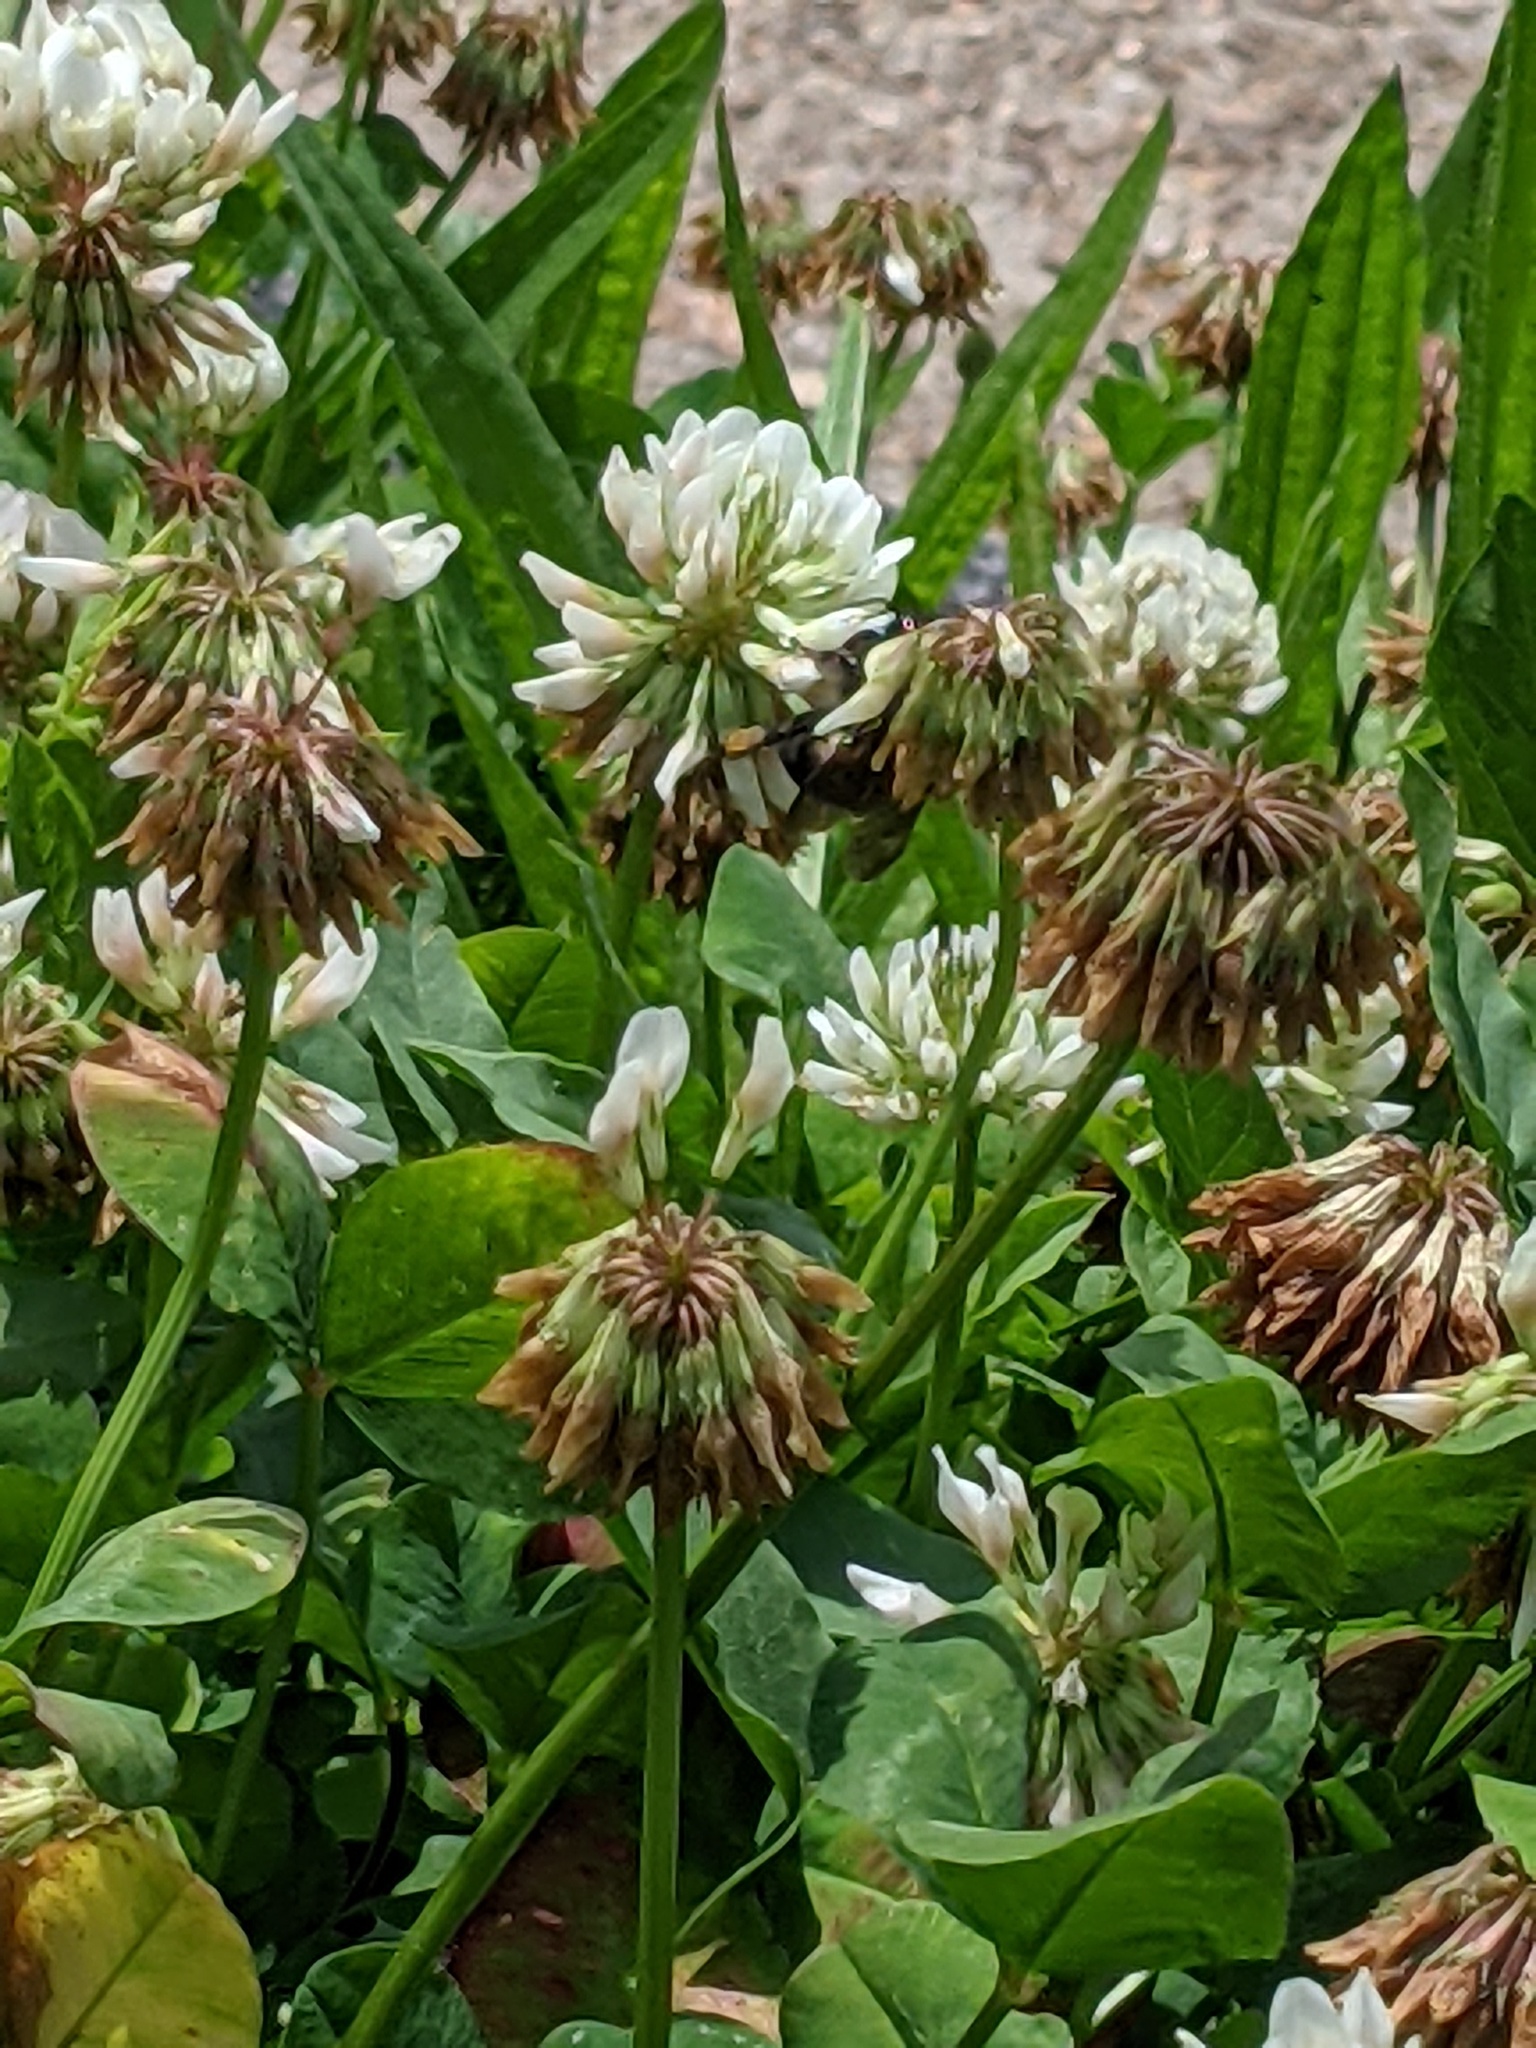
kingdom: Animalia
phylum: Arthropoda
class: Insecta
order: Hymenoptera
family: Apidae
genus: Bombus
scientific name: Bombus griseocollis
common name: Brown-belted bumble bee
